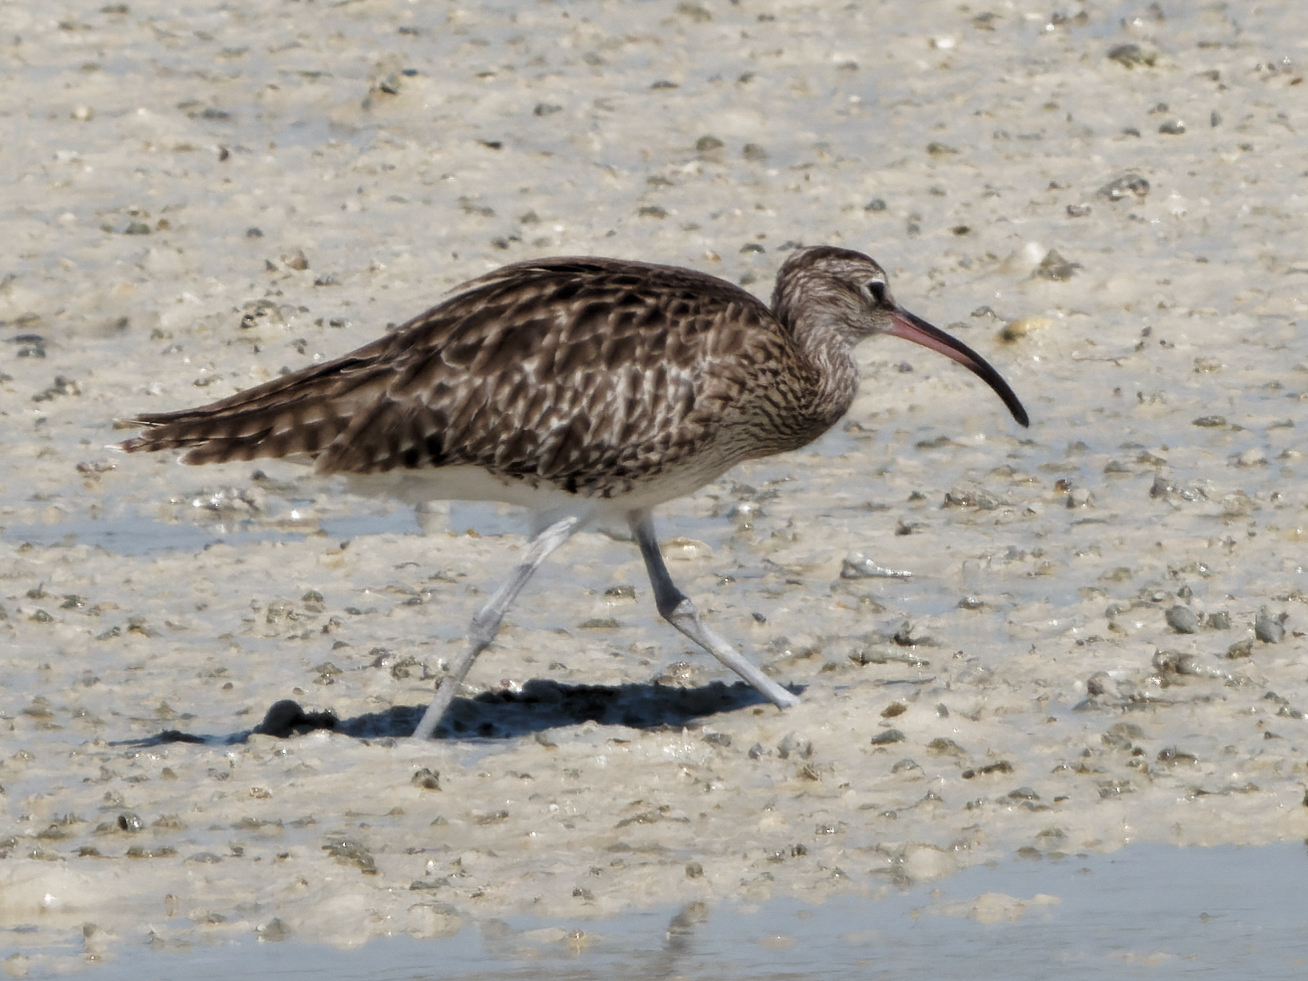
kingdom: Animalia
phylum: Chordata
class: Aves
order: Charadriiformes
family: Scolopacidae
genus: Numenius
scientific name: Numenius phaeopus
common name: Whimbrel
